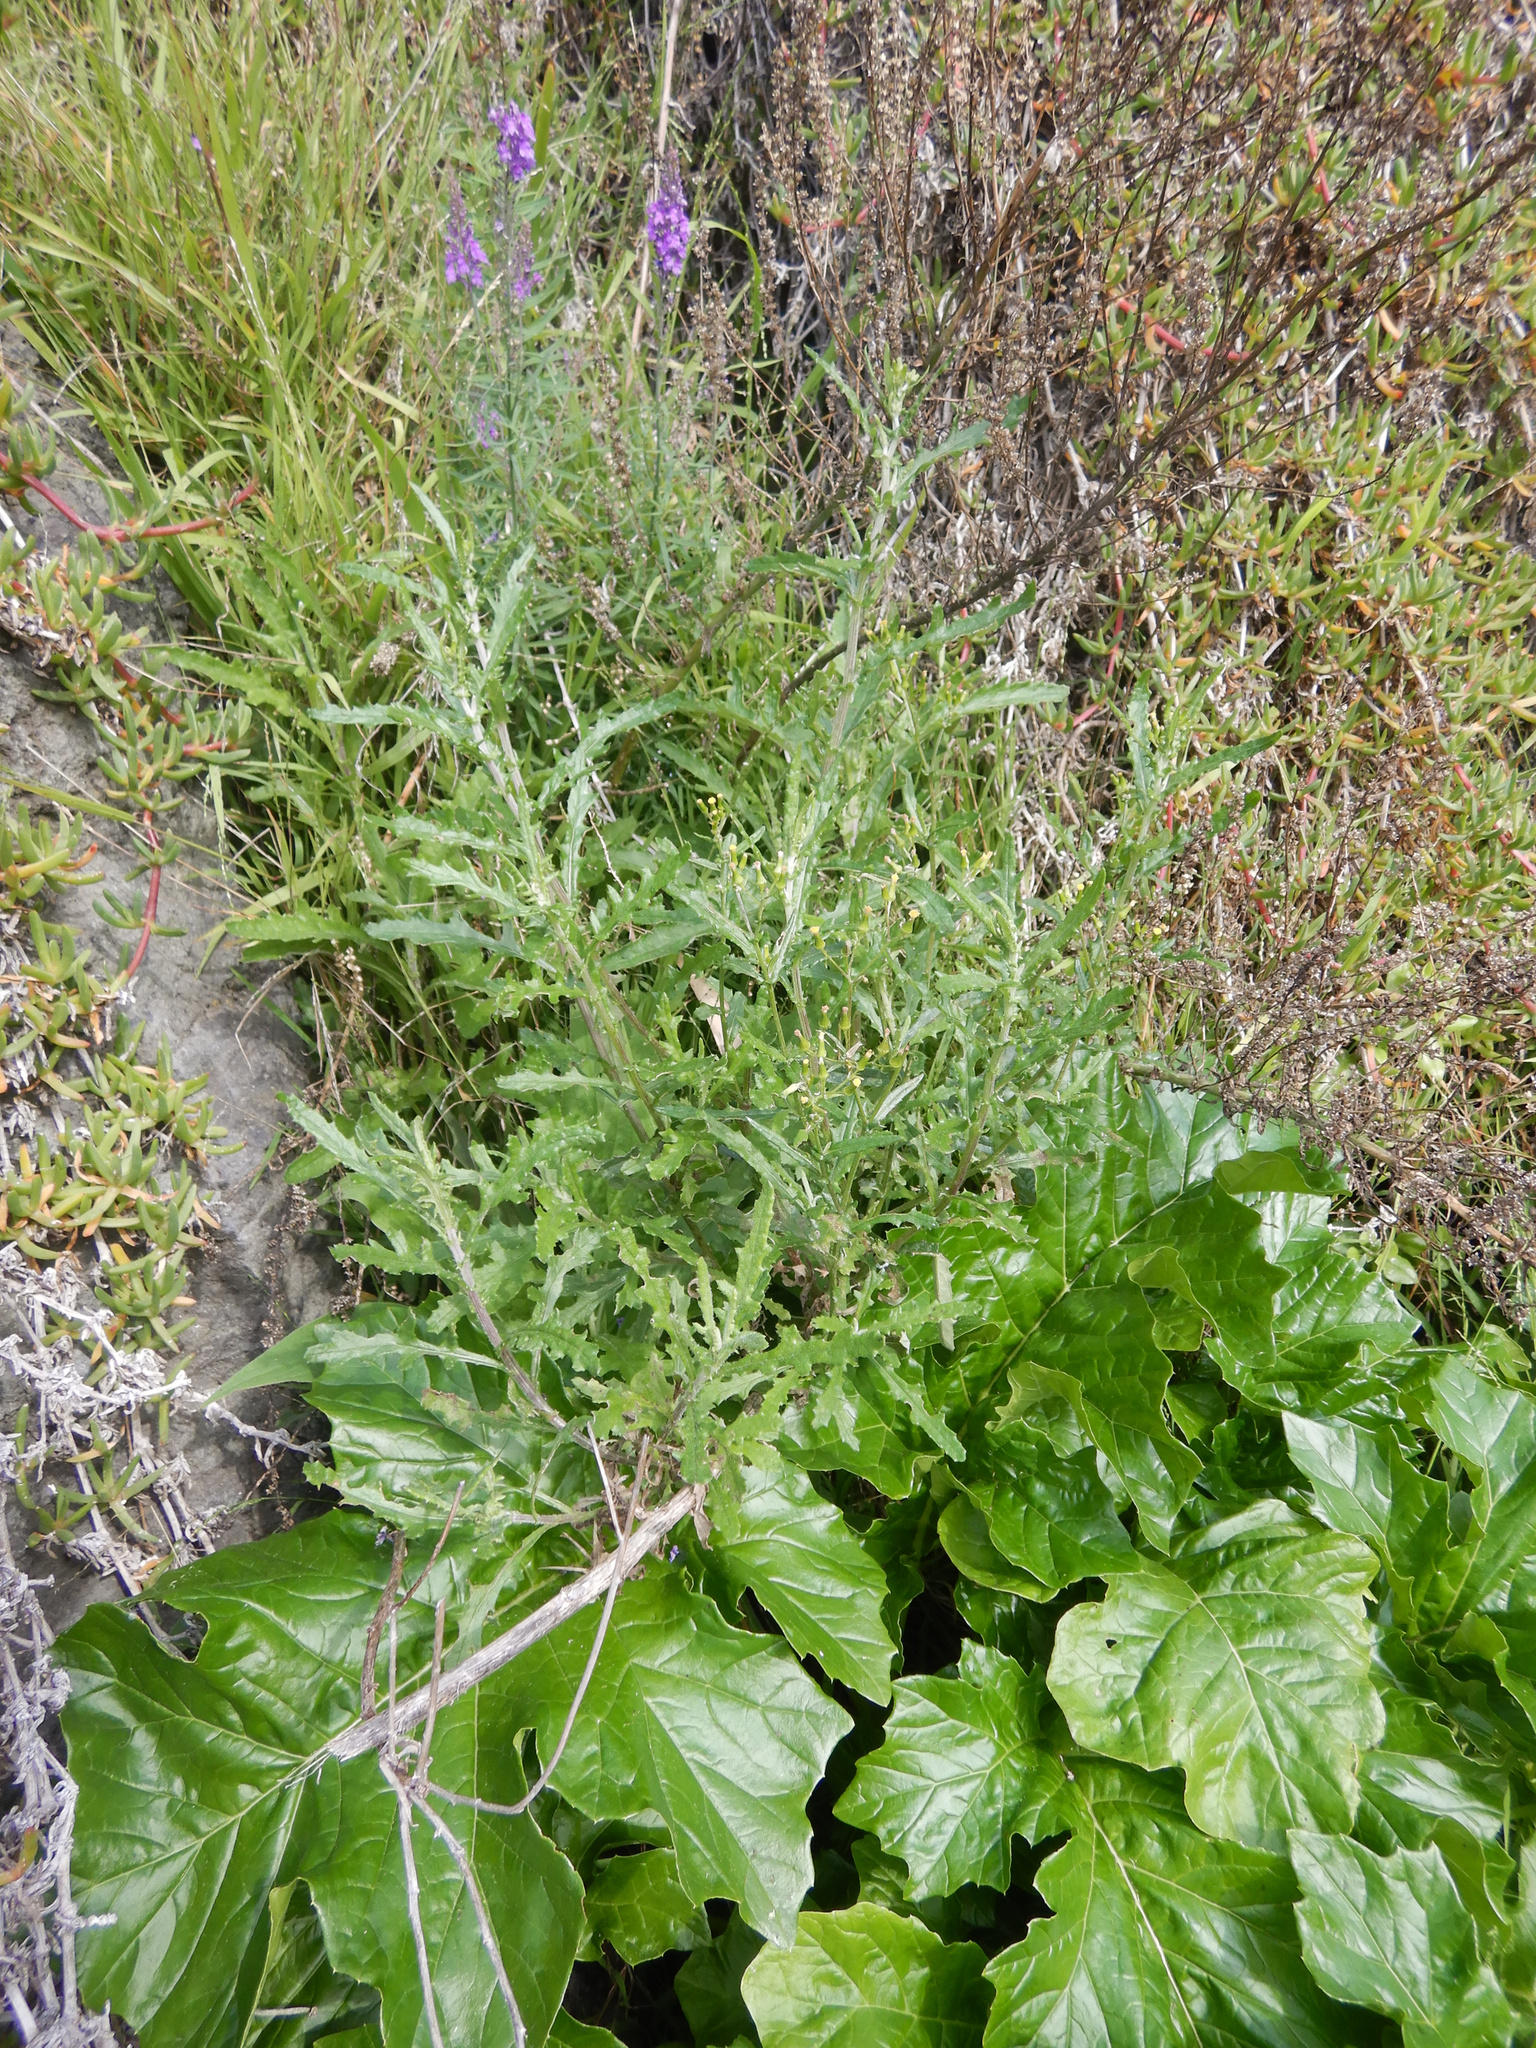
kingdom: Plantae
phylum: Tracheophyta
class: Magnoliopsida
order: Asterales
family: Asteraceae
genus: Senecio
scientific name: Senecio glomeratus
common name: Cutleaf burnweed
